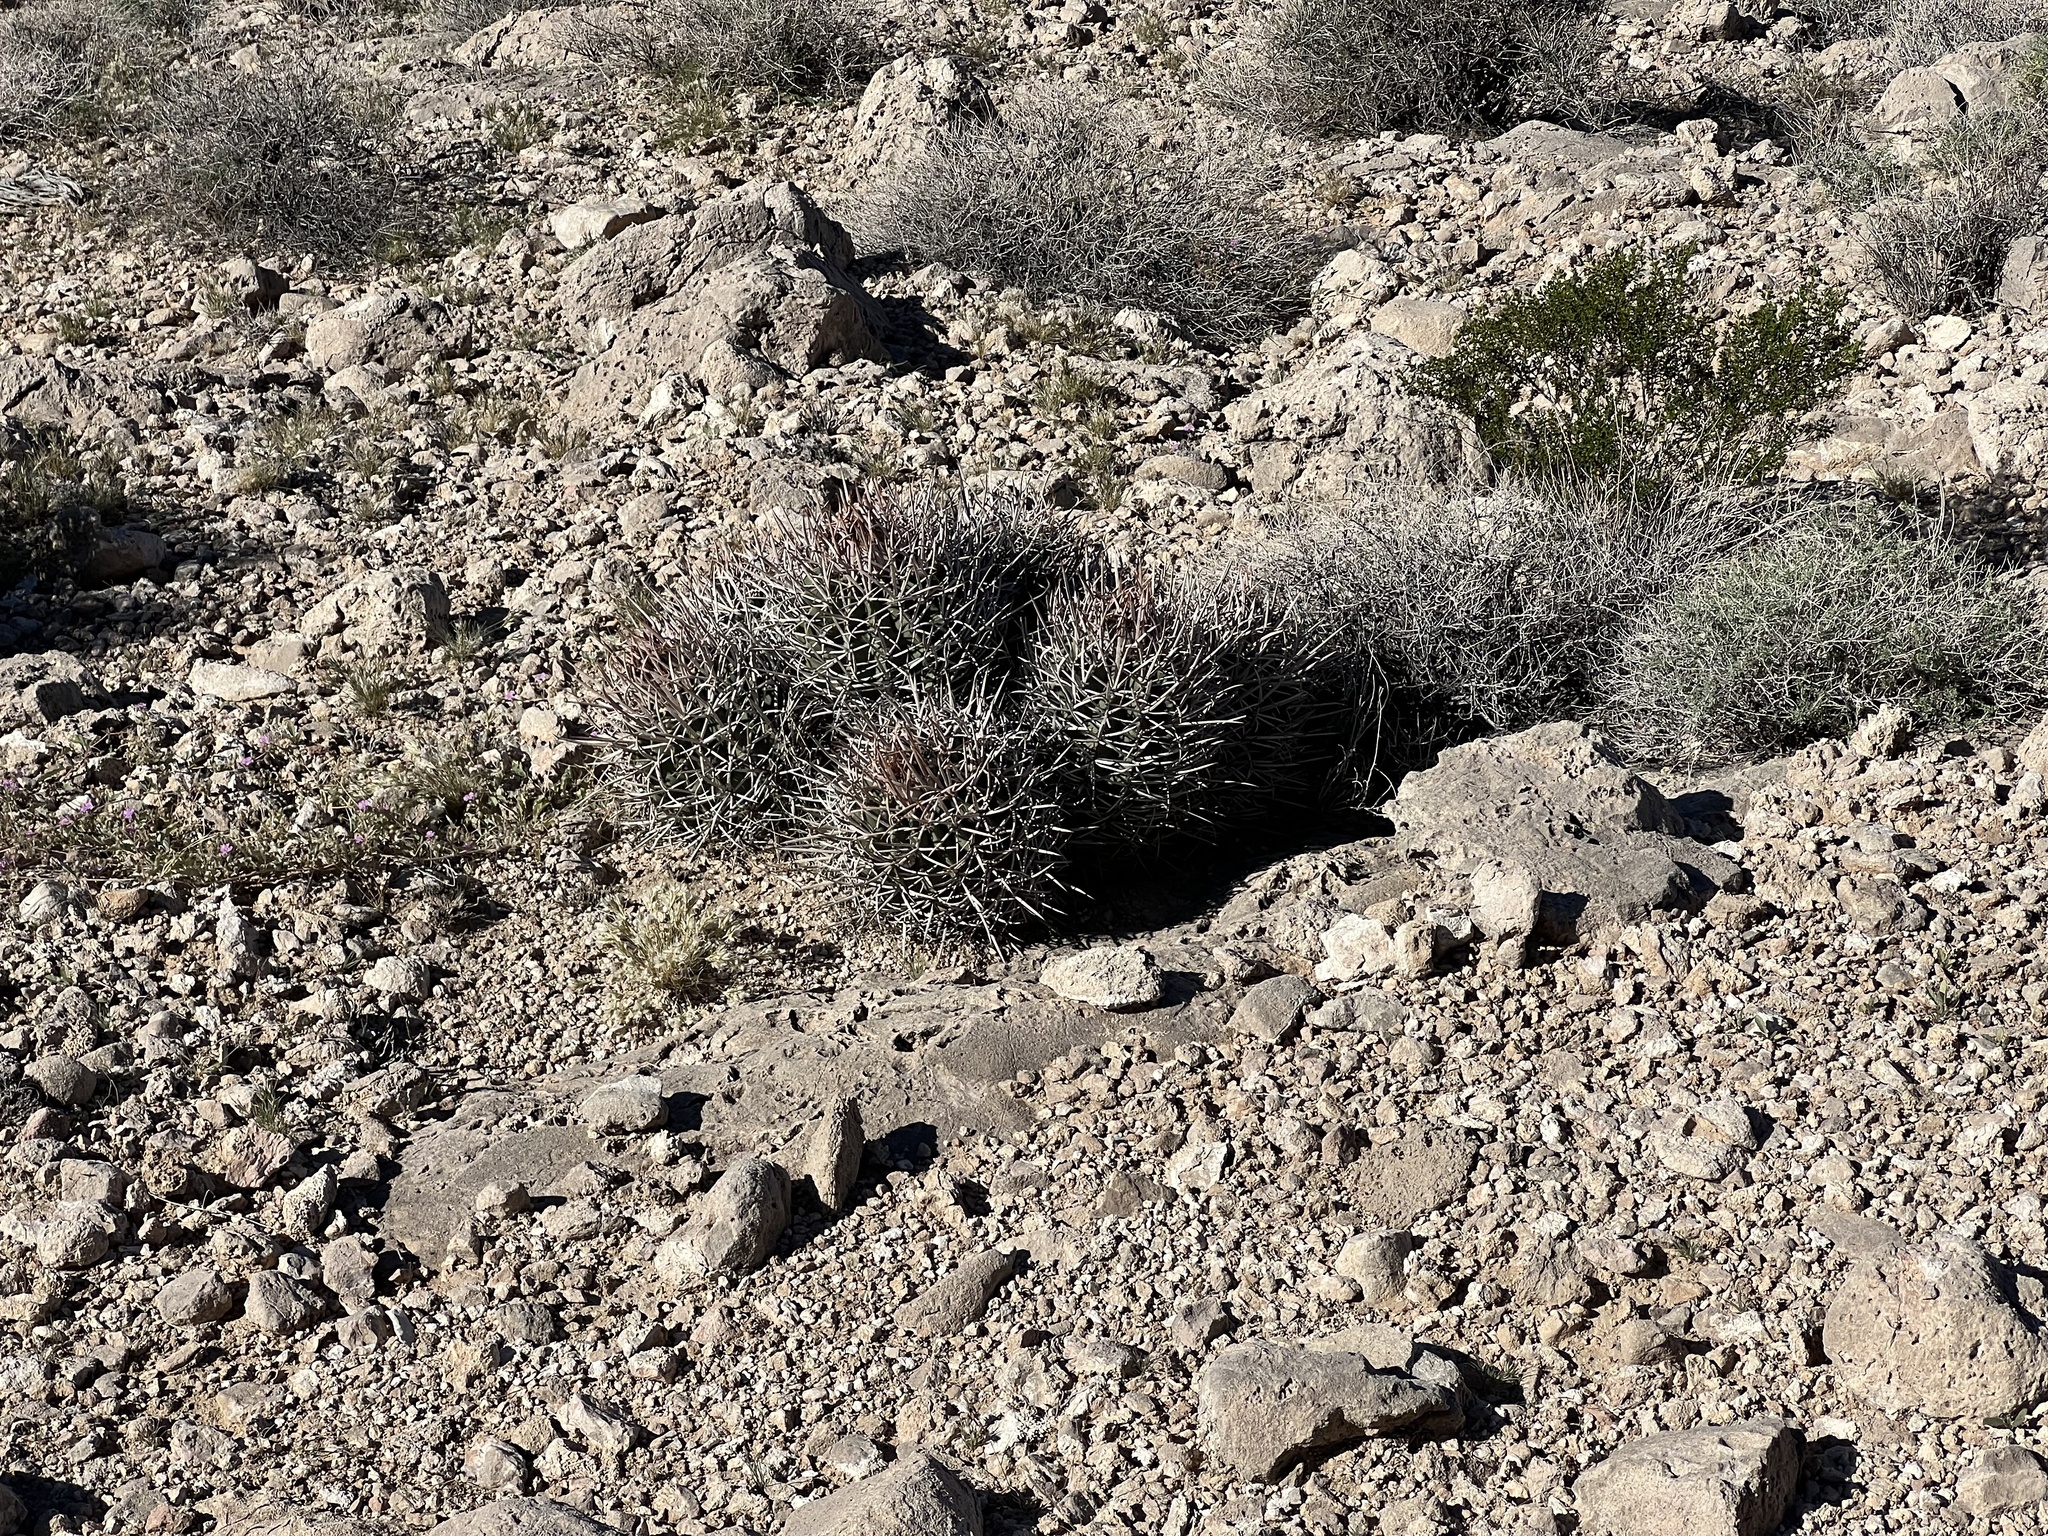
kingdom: Plantae
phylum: Tracheophyta
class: Magnoliopsida
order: Caryophyllales
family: Cactaceae
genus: Echinocactus
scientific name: Echinocactus polycephalus
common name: Cottontop cactus
